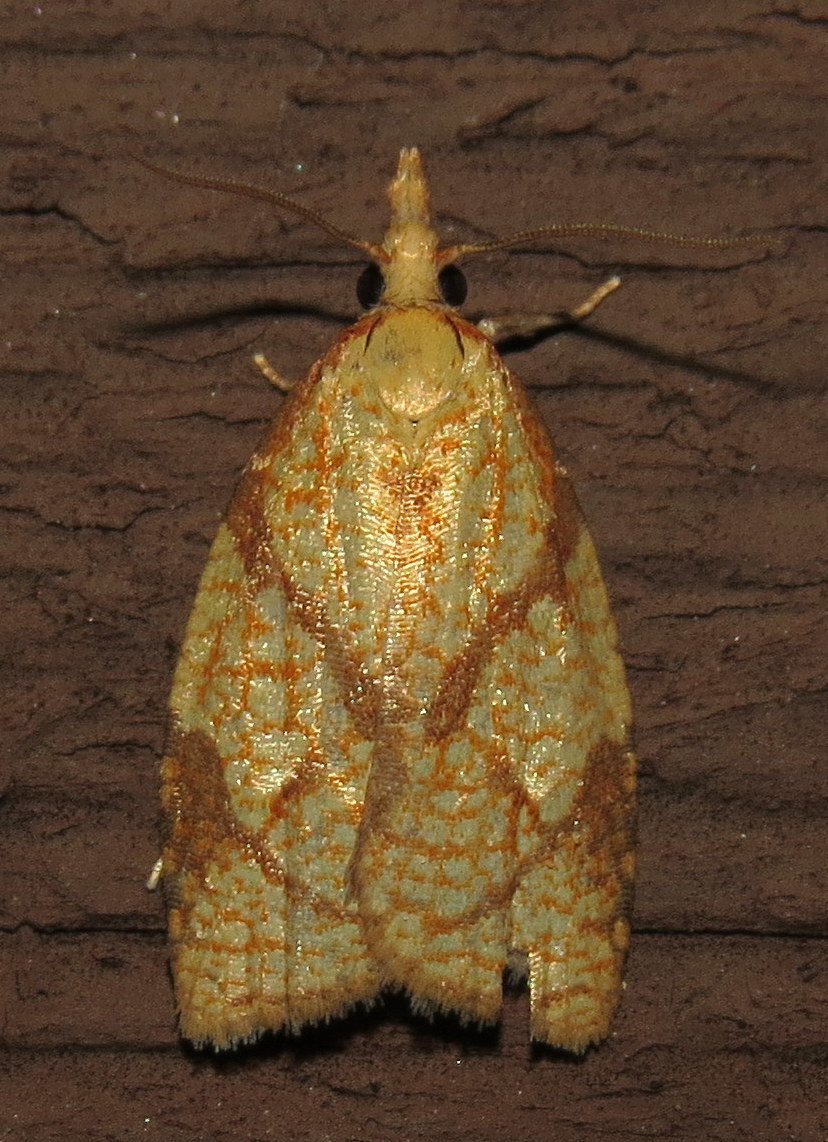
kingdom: Animalia
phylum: Arthropoda
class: Insecta
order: Lepidoptera
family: Tortricidae
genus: Cenopis
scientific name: Cenopis reticulatana
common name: Reticulated fruitworm moth
